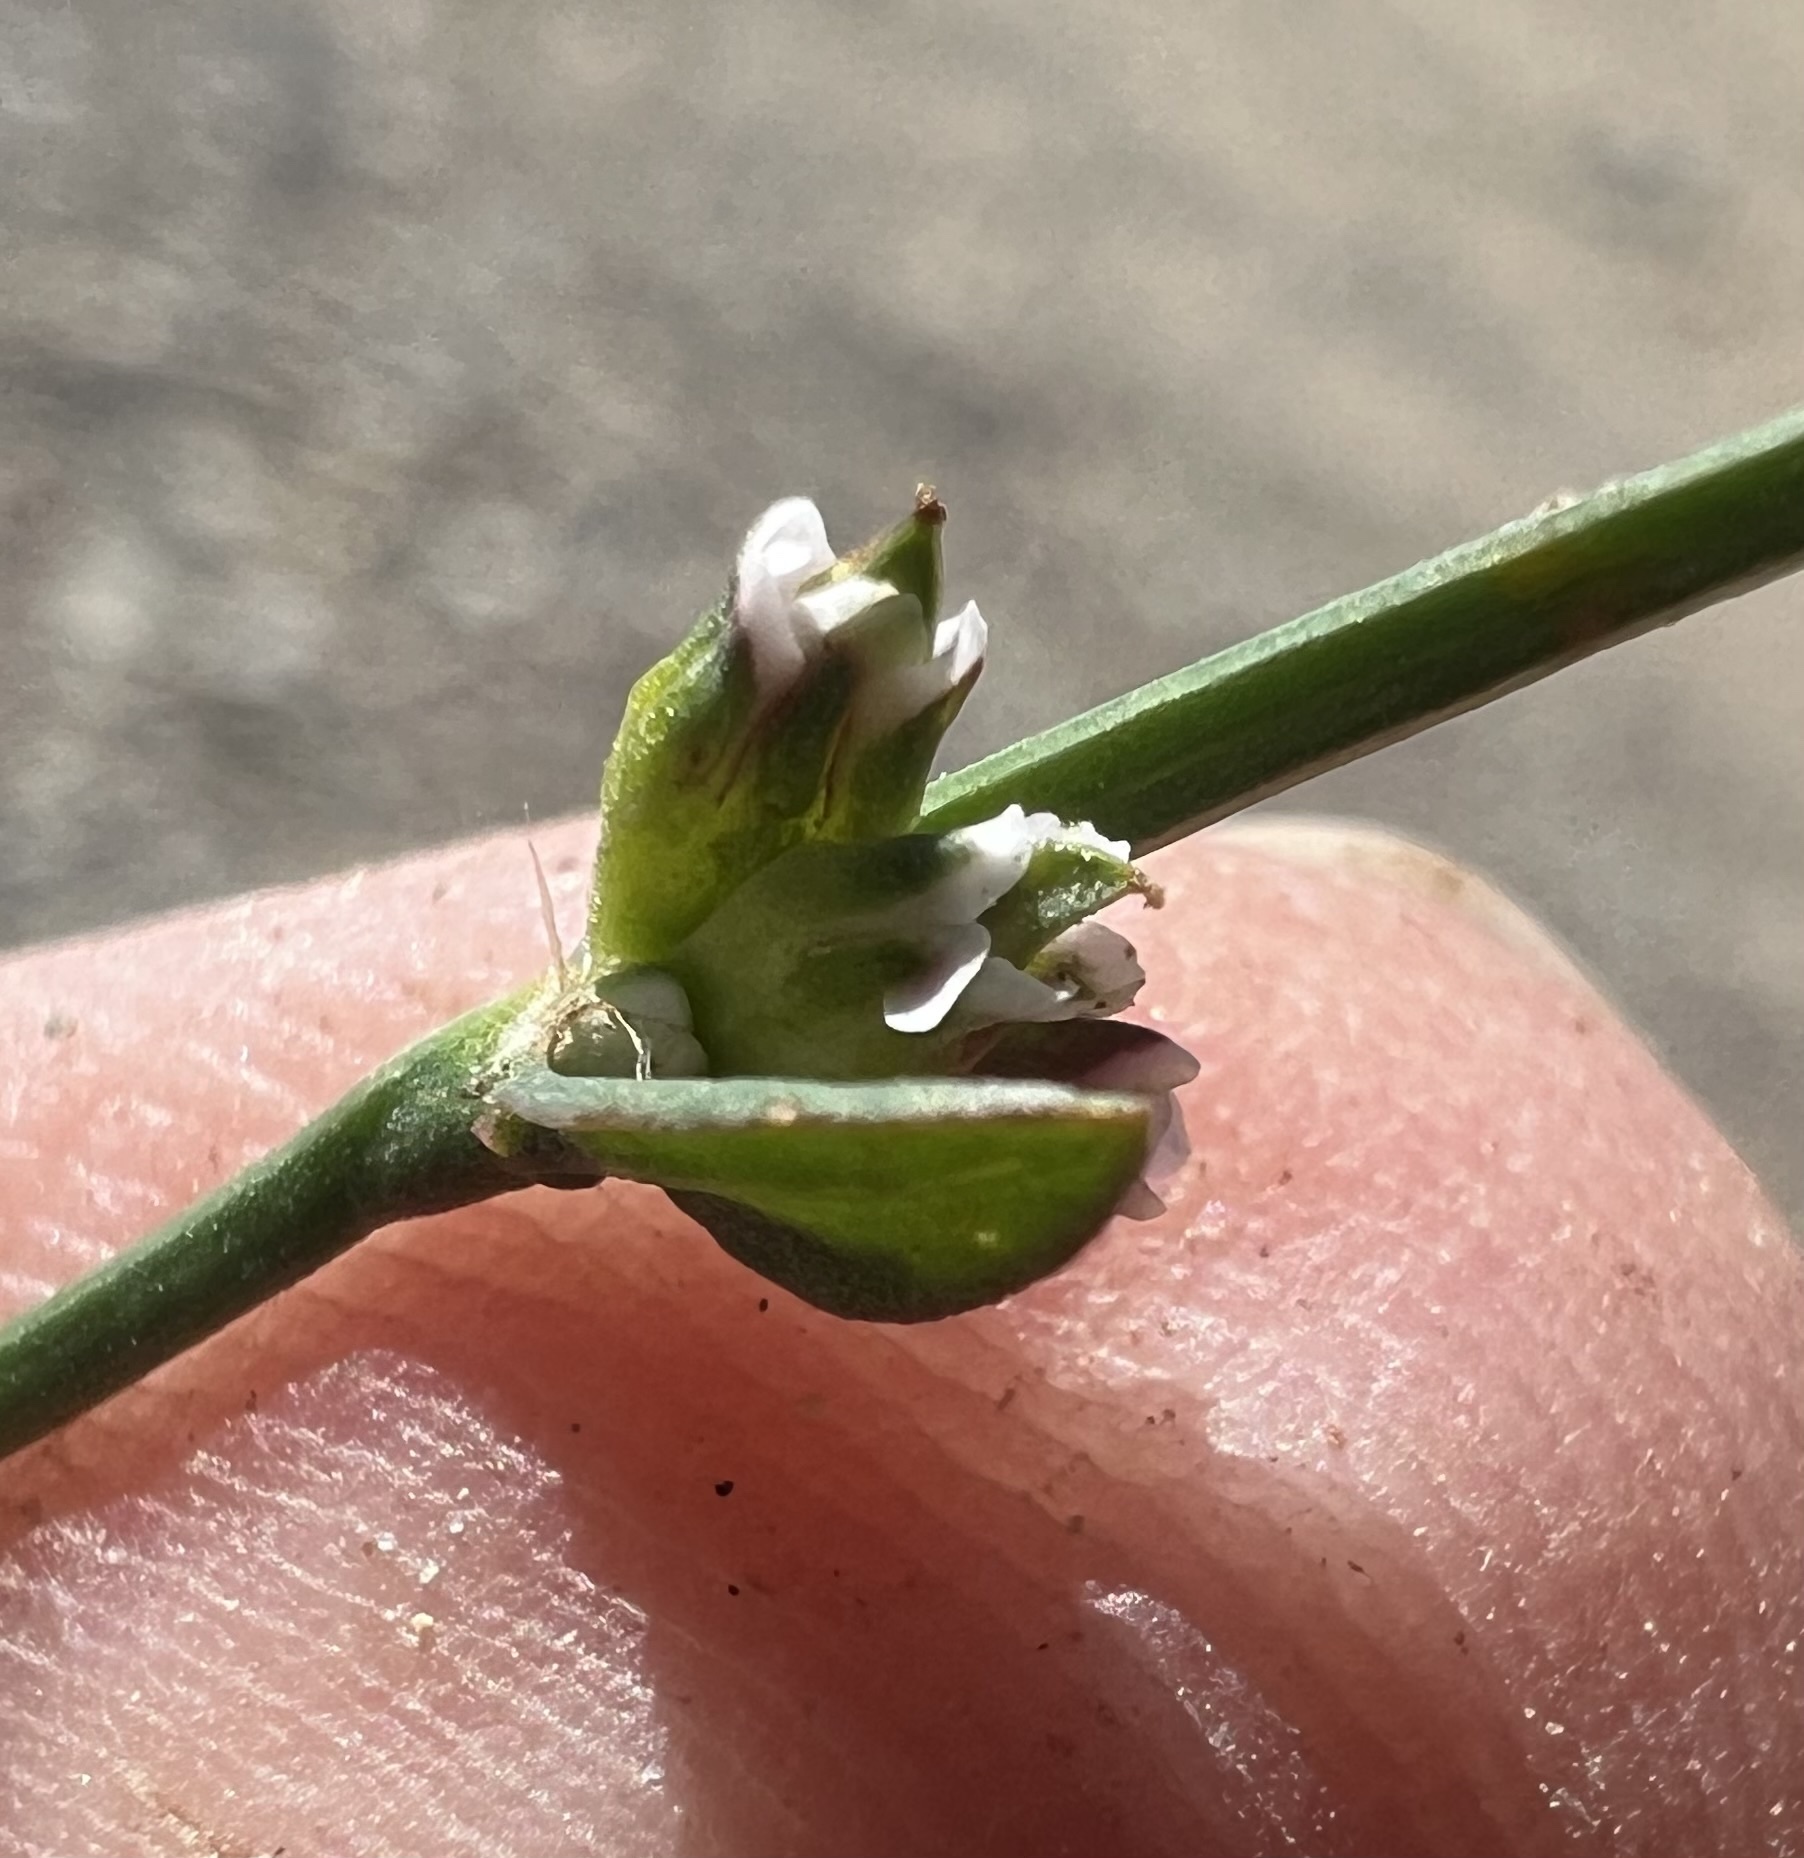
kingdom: Plantae
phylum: Tracheophyta
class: Magnoliopsida
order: Caryophyllales
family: Polygonaceae
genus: Polygonum
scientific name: Polygonum aviculare
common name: Prostrate knotweed
